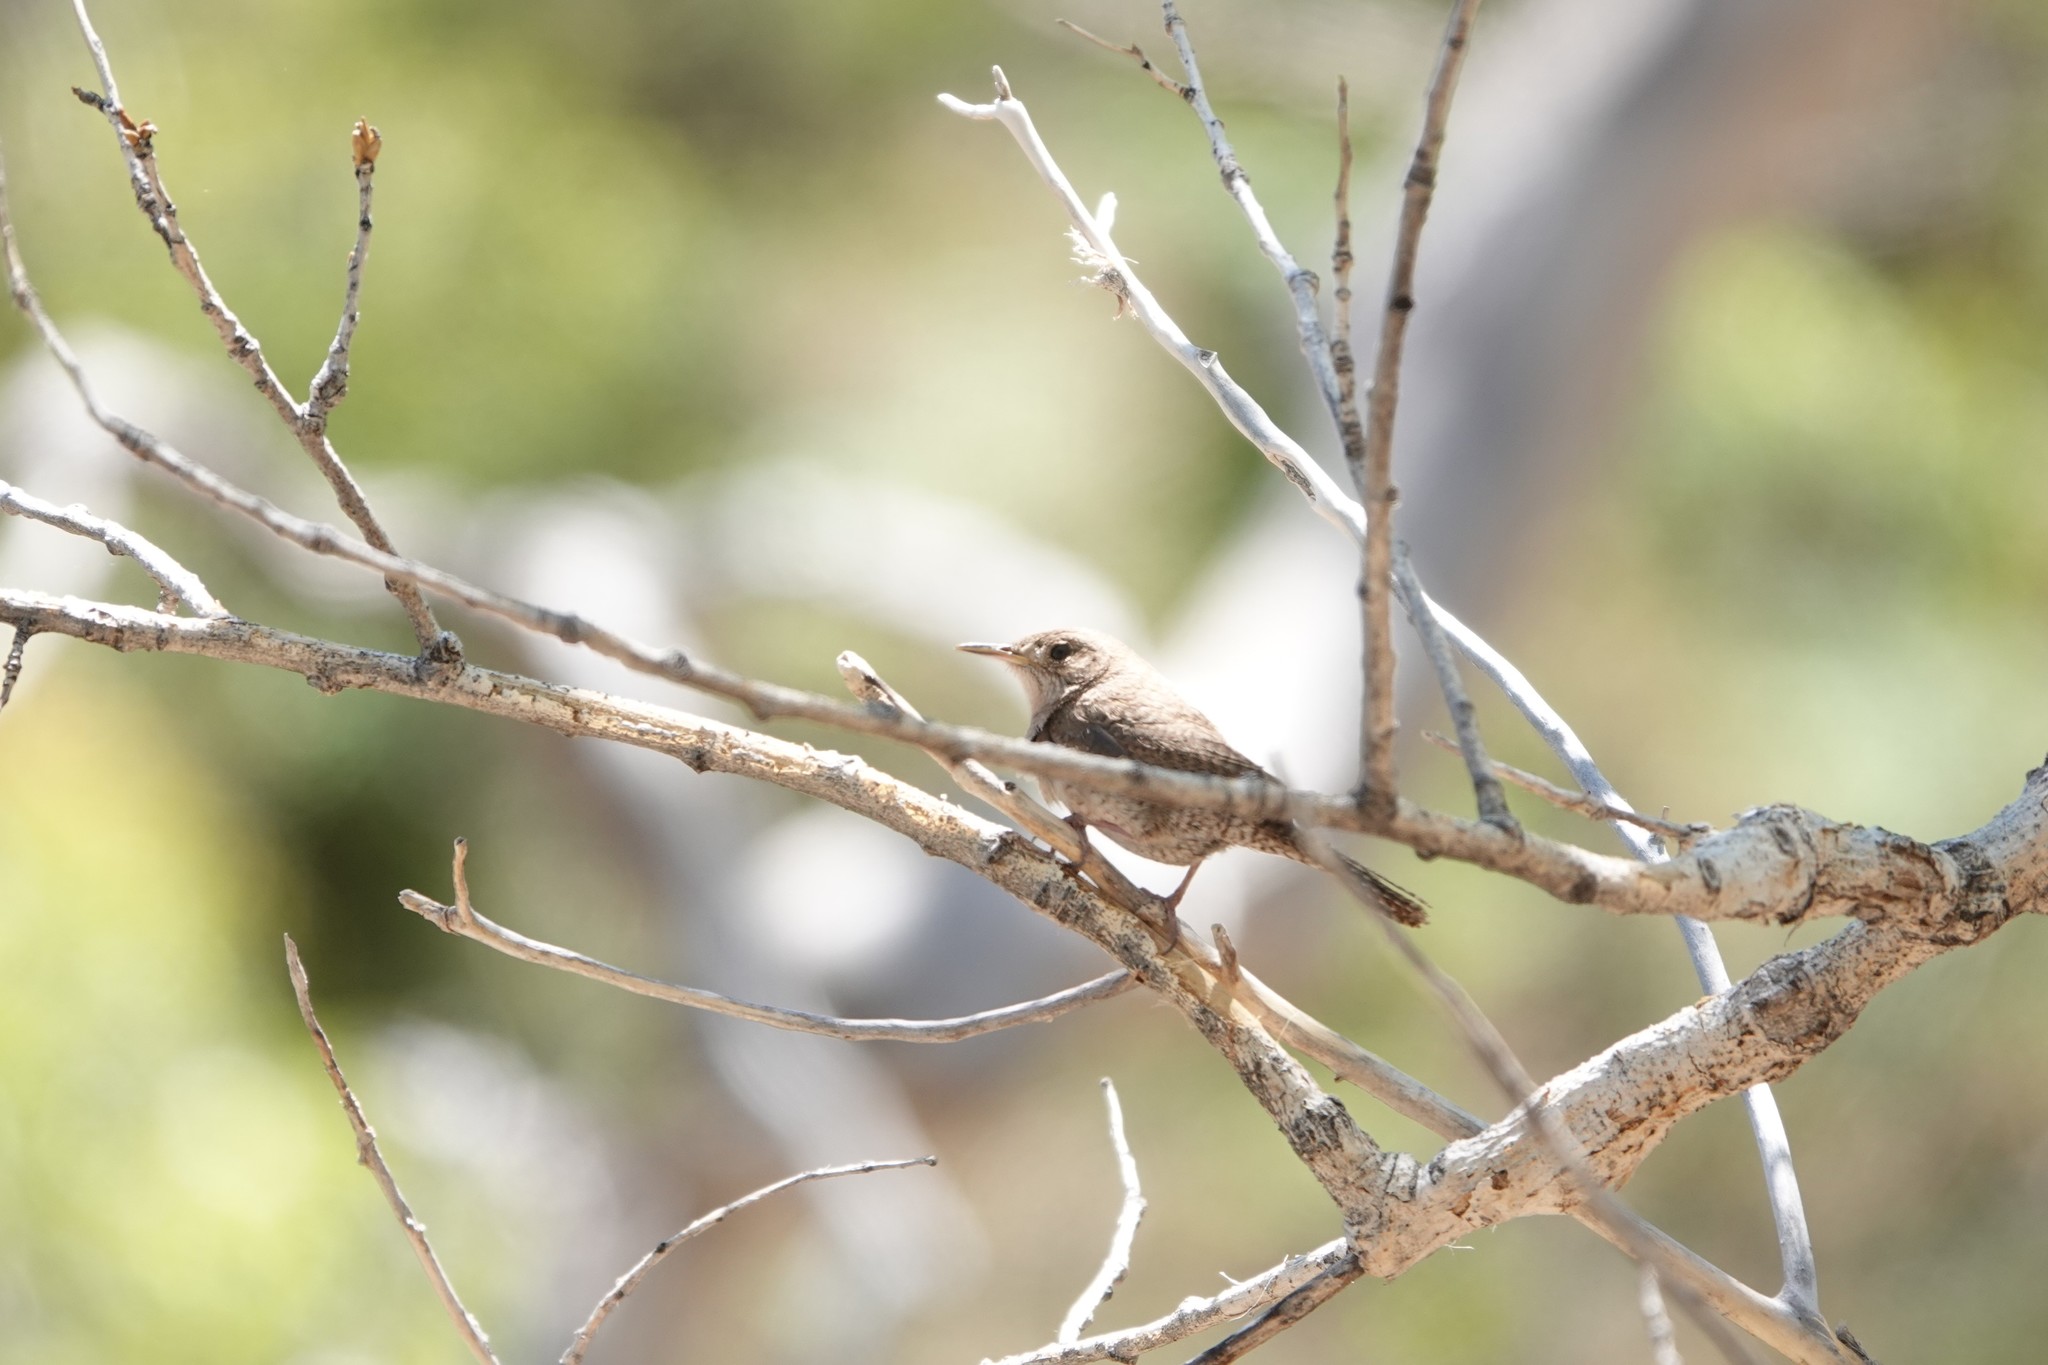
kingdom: Animalia
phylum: Chordata
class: Aves
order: Passeriformes
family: Troglodytidae
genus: Troglodytes
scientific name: Troglodytes aedon
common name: House wren
